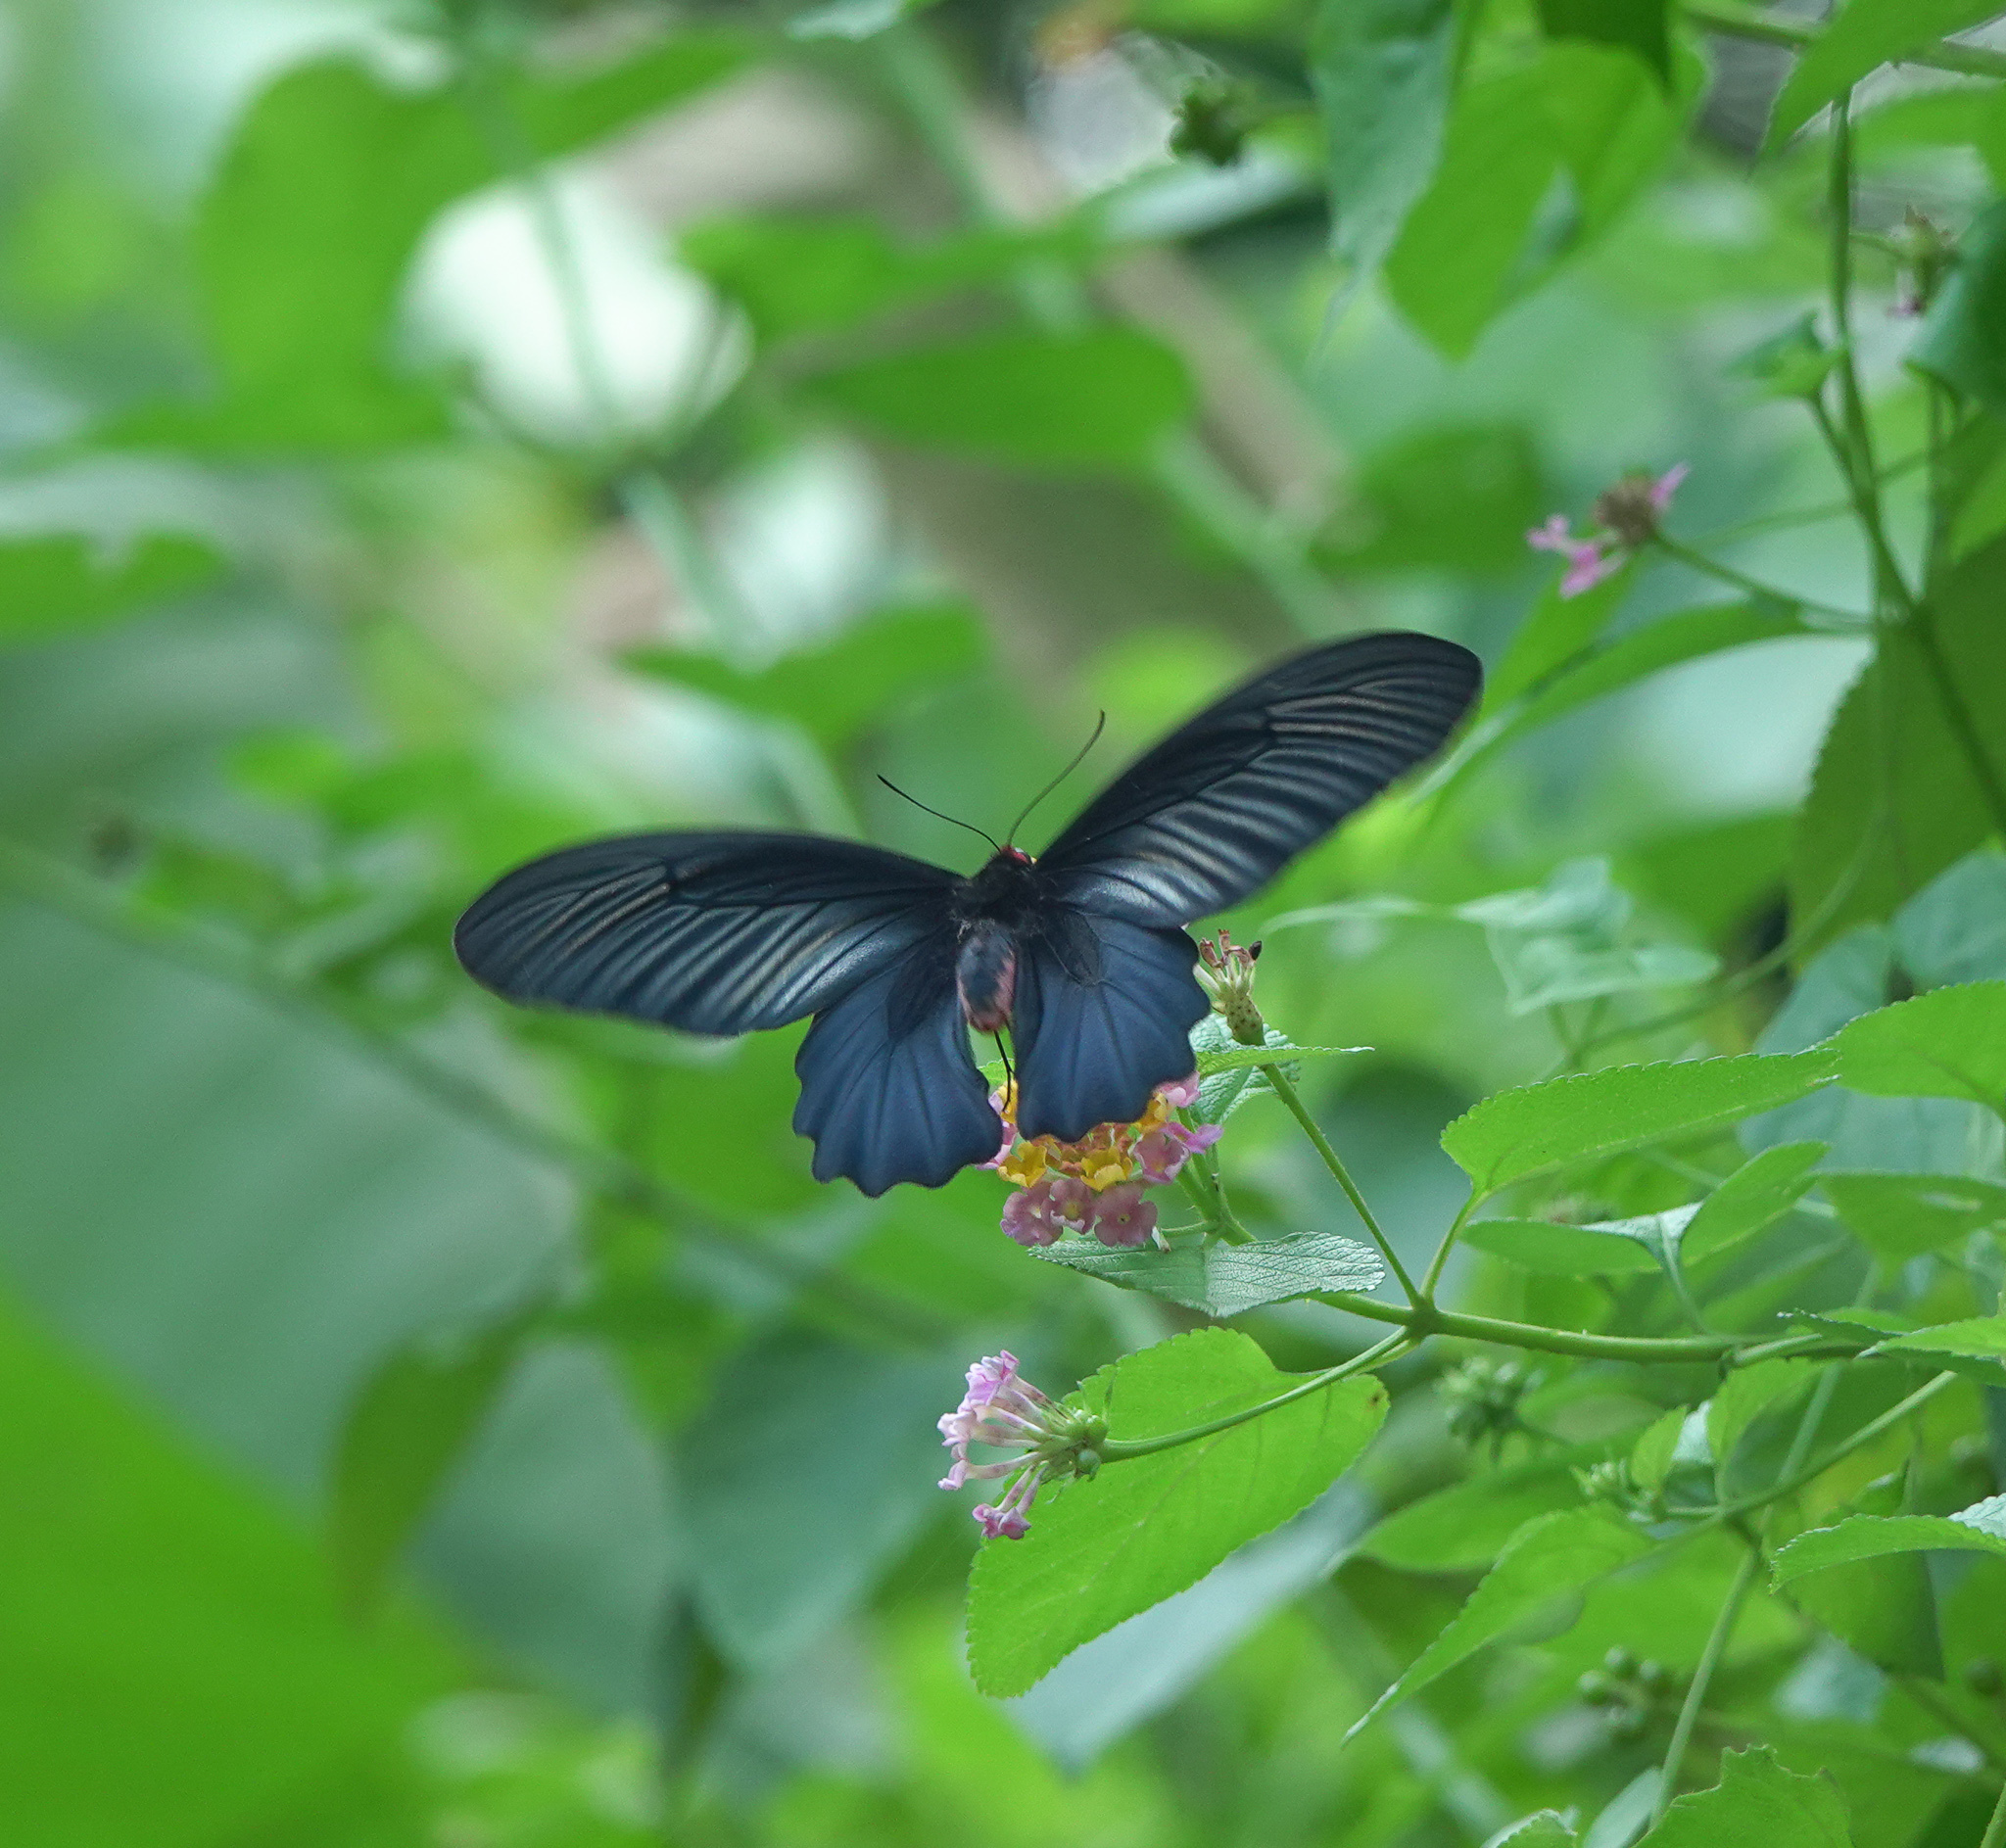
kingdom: Animalia
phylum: Arthropoda
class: Insecta
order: Lepidoptera
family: Papilionidae
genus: Atrophaneura
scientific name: Atrophaneura varuna
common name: Common batwing
